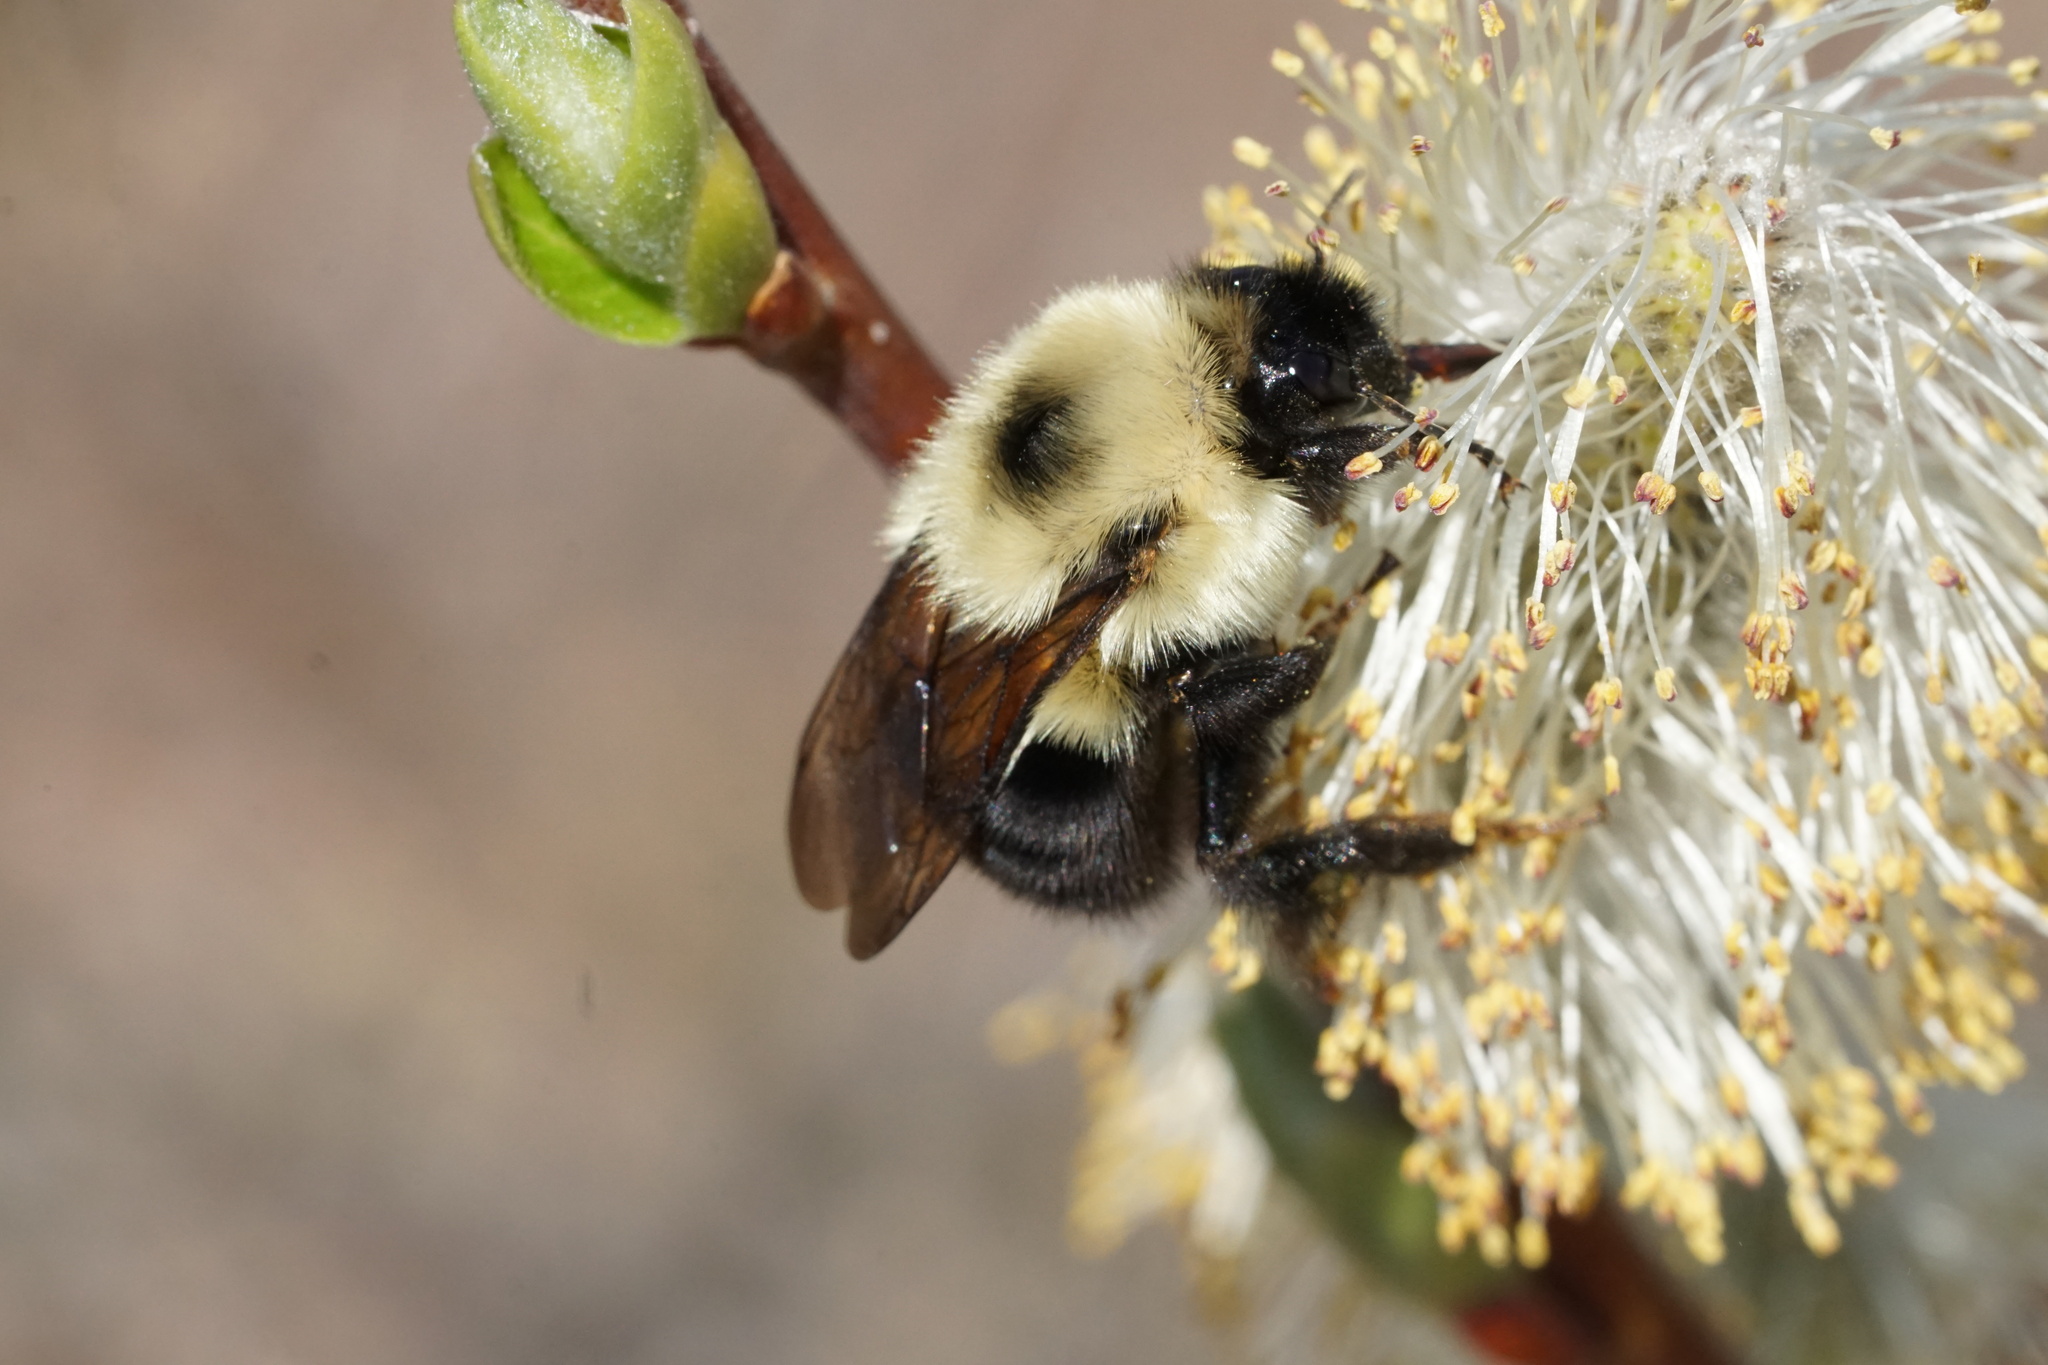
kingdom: Animalia
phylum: Arthropoda
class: Insecta
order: Hymenoptera
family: Apidae
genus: Bombus
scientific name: Bombus bimaculatus
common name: Two-spotted bumble bee
